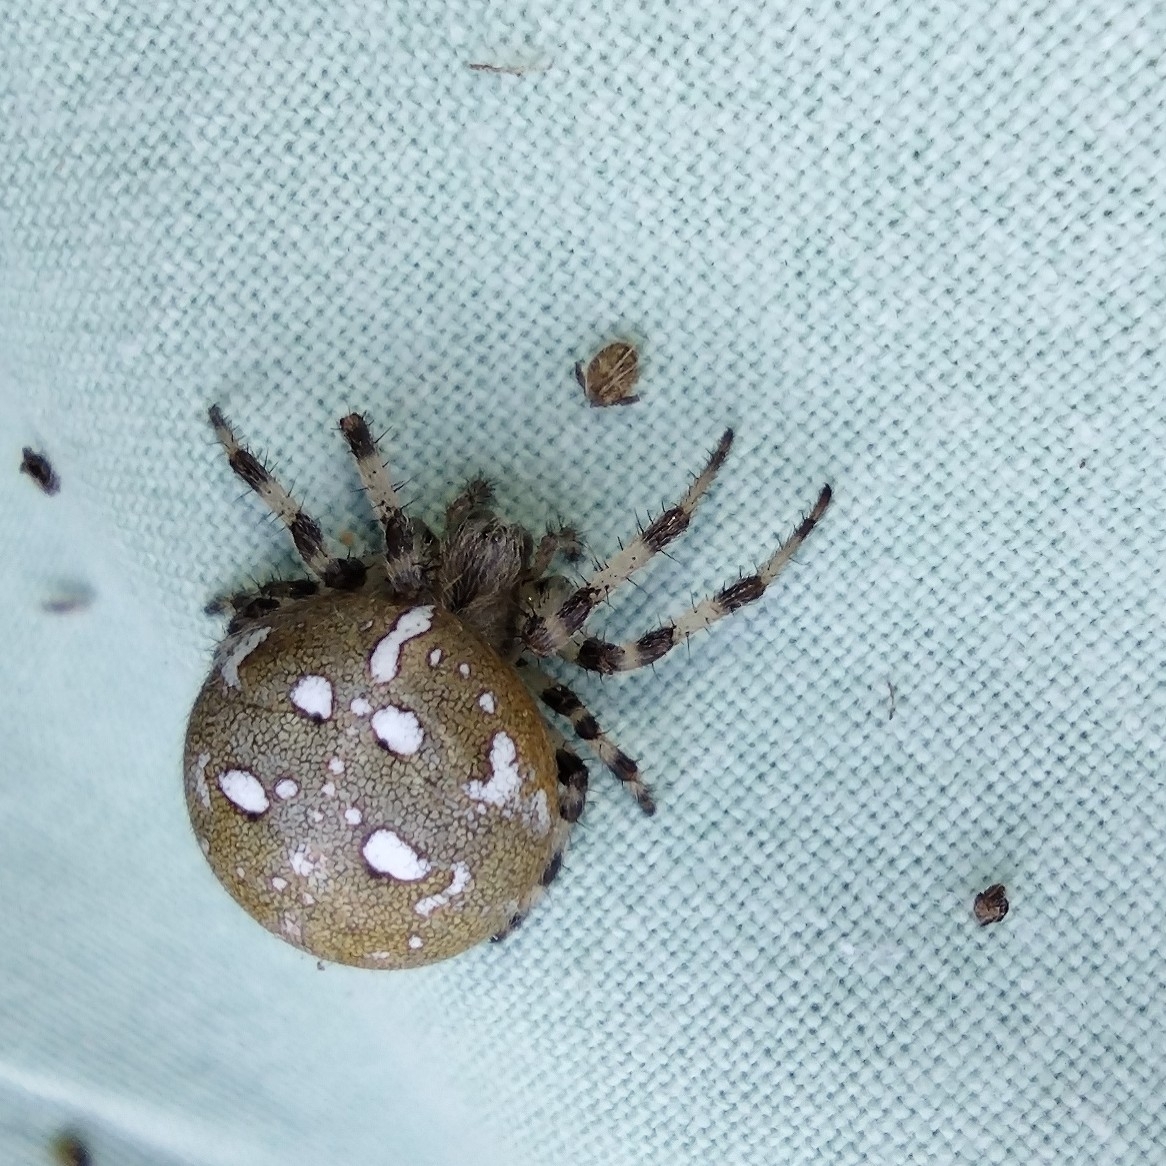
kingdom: Animalia
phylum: Arthropoda
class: Arachnida
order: Araneae
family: Araneidae
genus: Araneus
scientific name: Araneus quadratus
